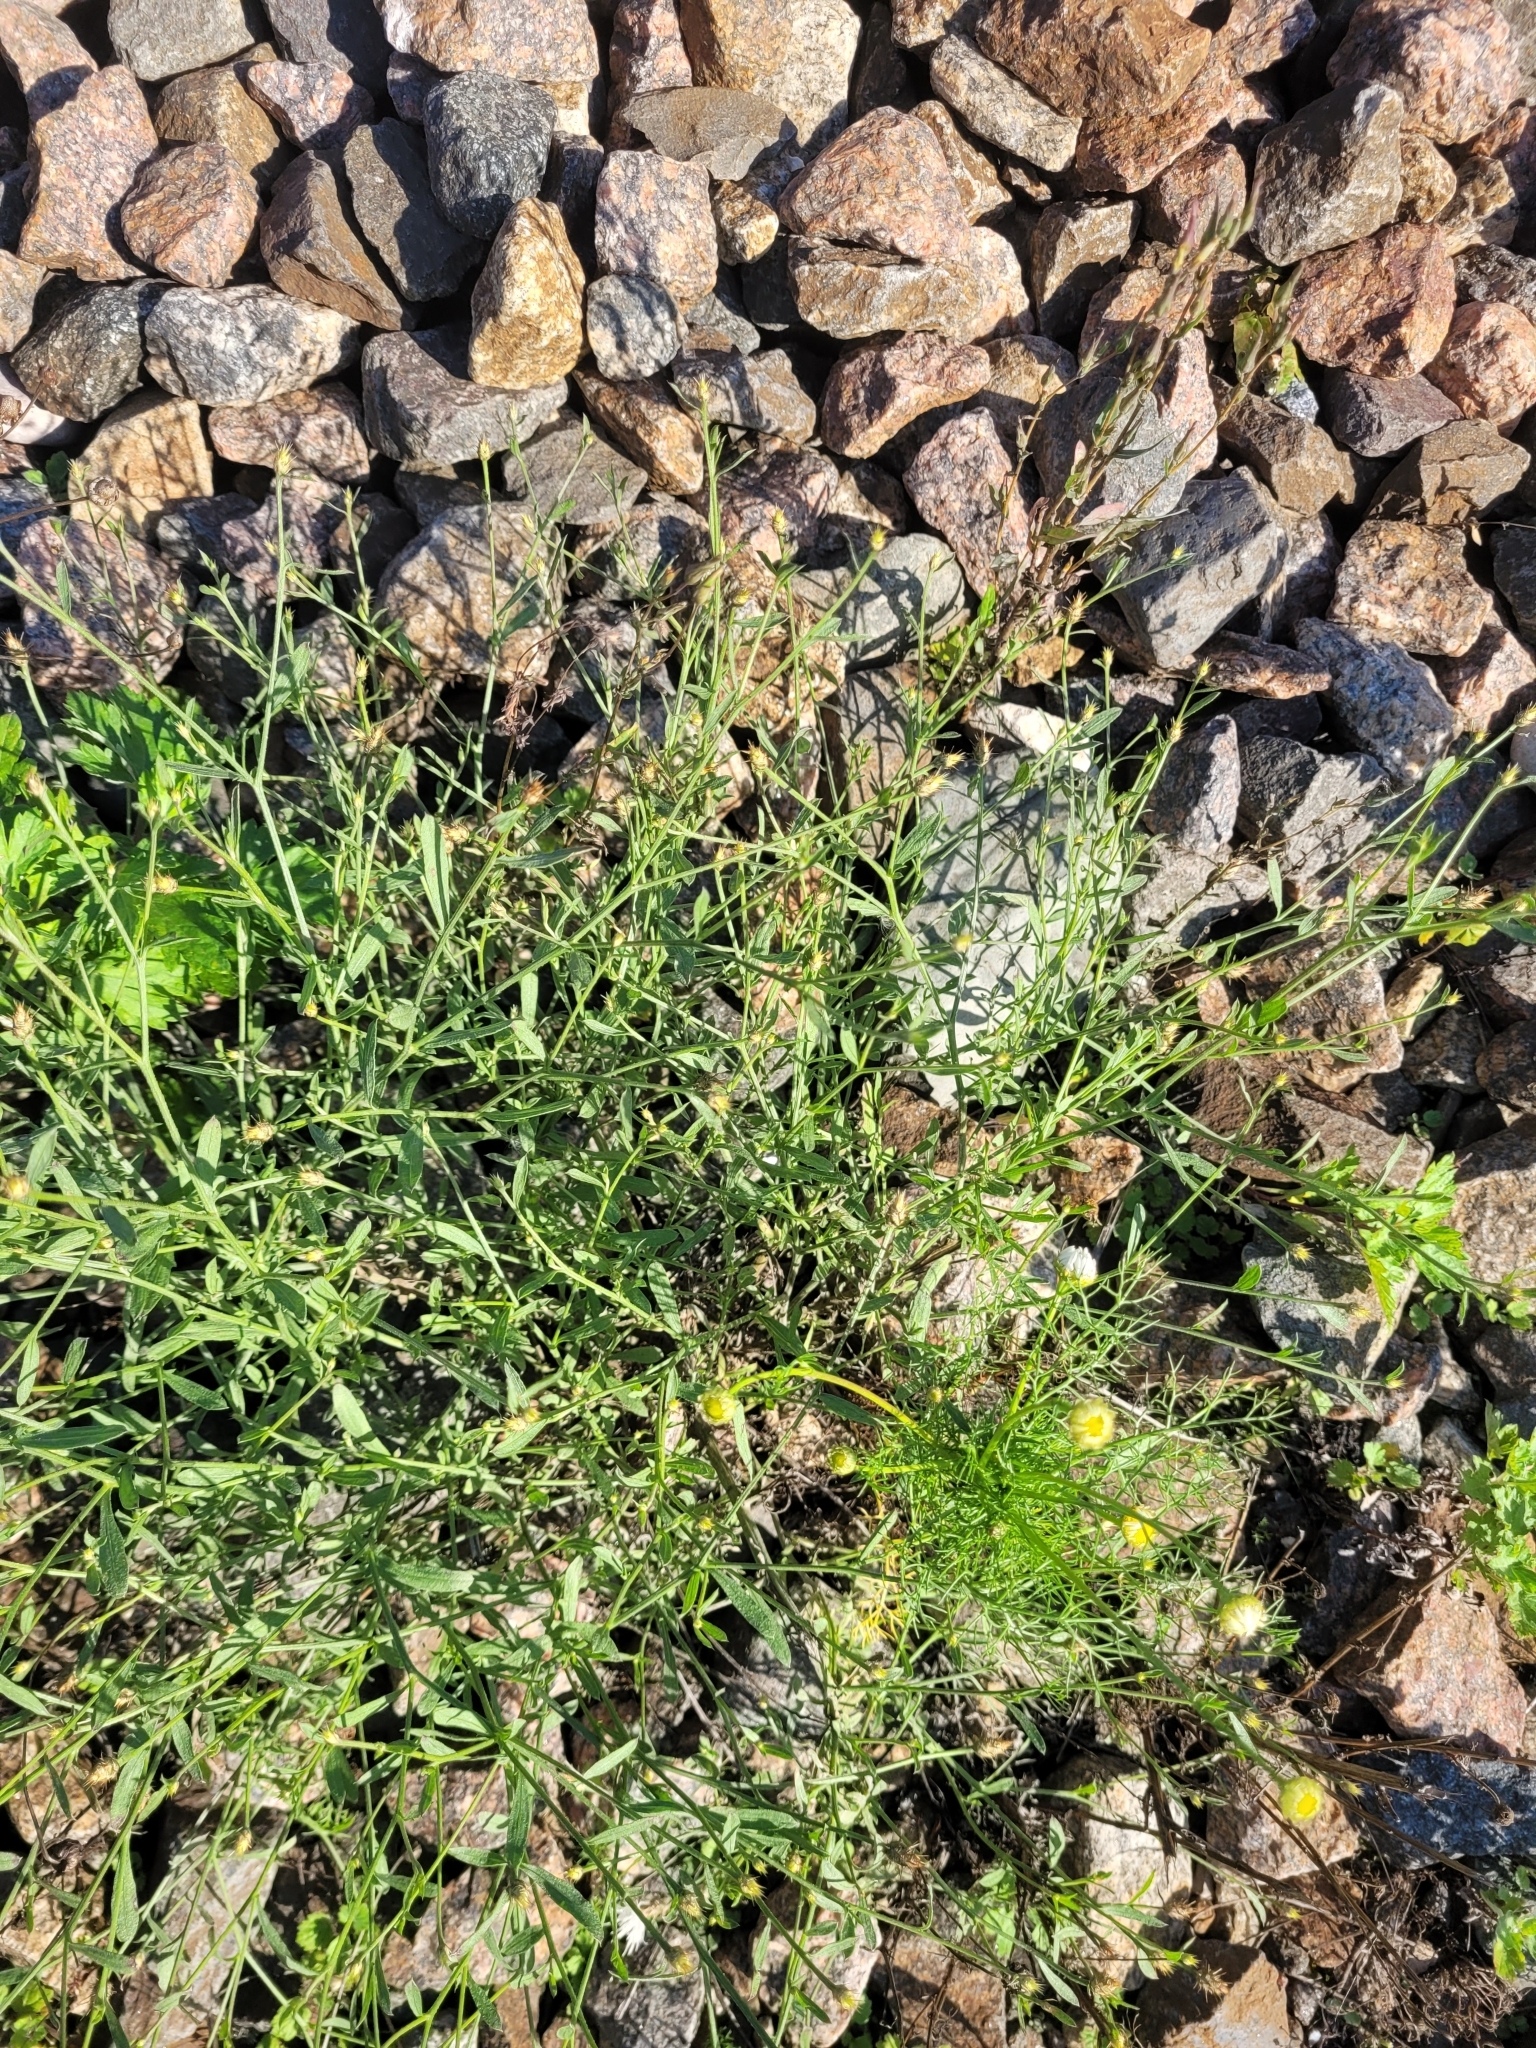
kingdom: Plantae
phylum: Tracheophyta
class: Magnoliopsida
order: Asterales
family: Asteraceae
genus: Centaurea
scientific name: Centaurea diffusa
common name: Diffuse knapweed
